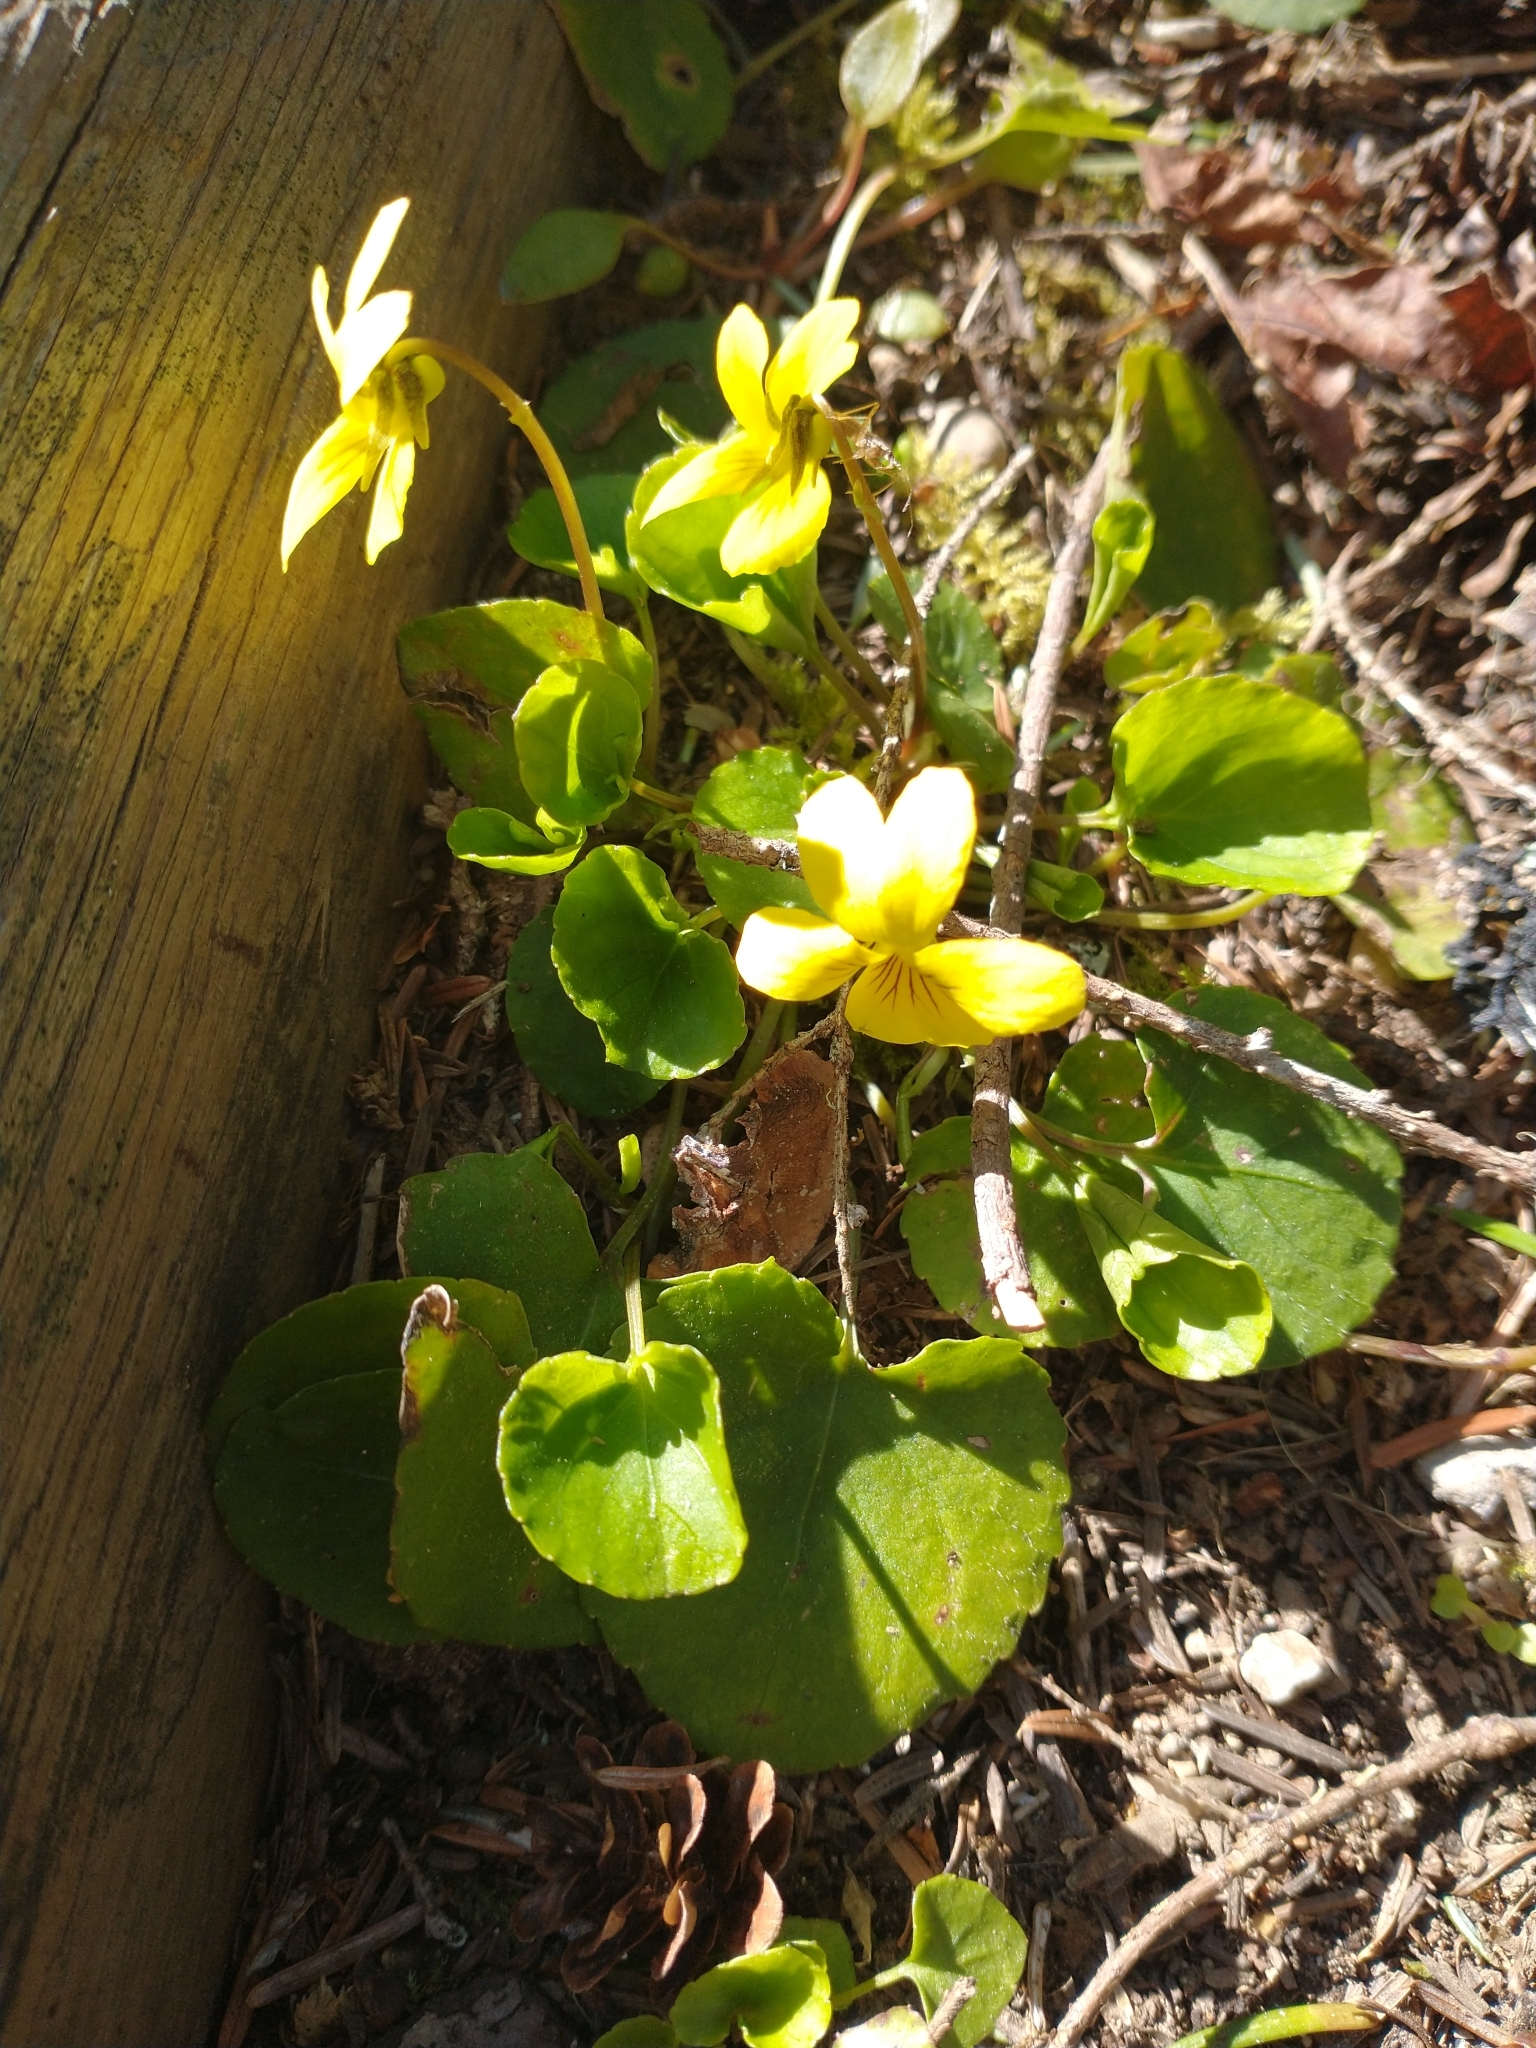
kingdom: Plantae
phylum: Tracheophyta
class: Magnoliopsida
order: Malpighiales
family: Violaceae
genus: Viola
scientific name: Viola sempervirens
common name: Evergreen violet
